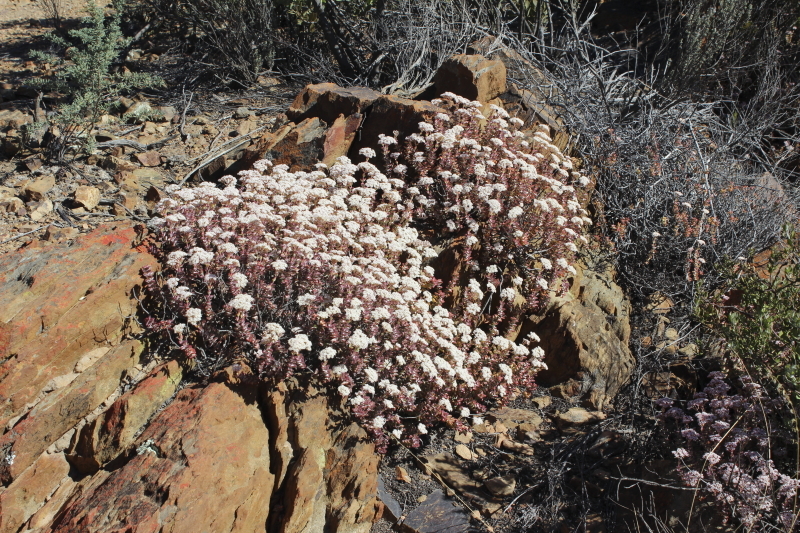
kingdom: Plantae
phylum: Tracheophyta
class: Magnoliopsida
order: Saxifragales
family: Crassulaceae
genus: Crassula
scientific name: Crassula rupestris
